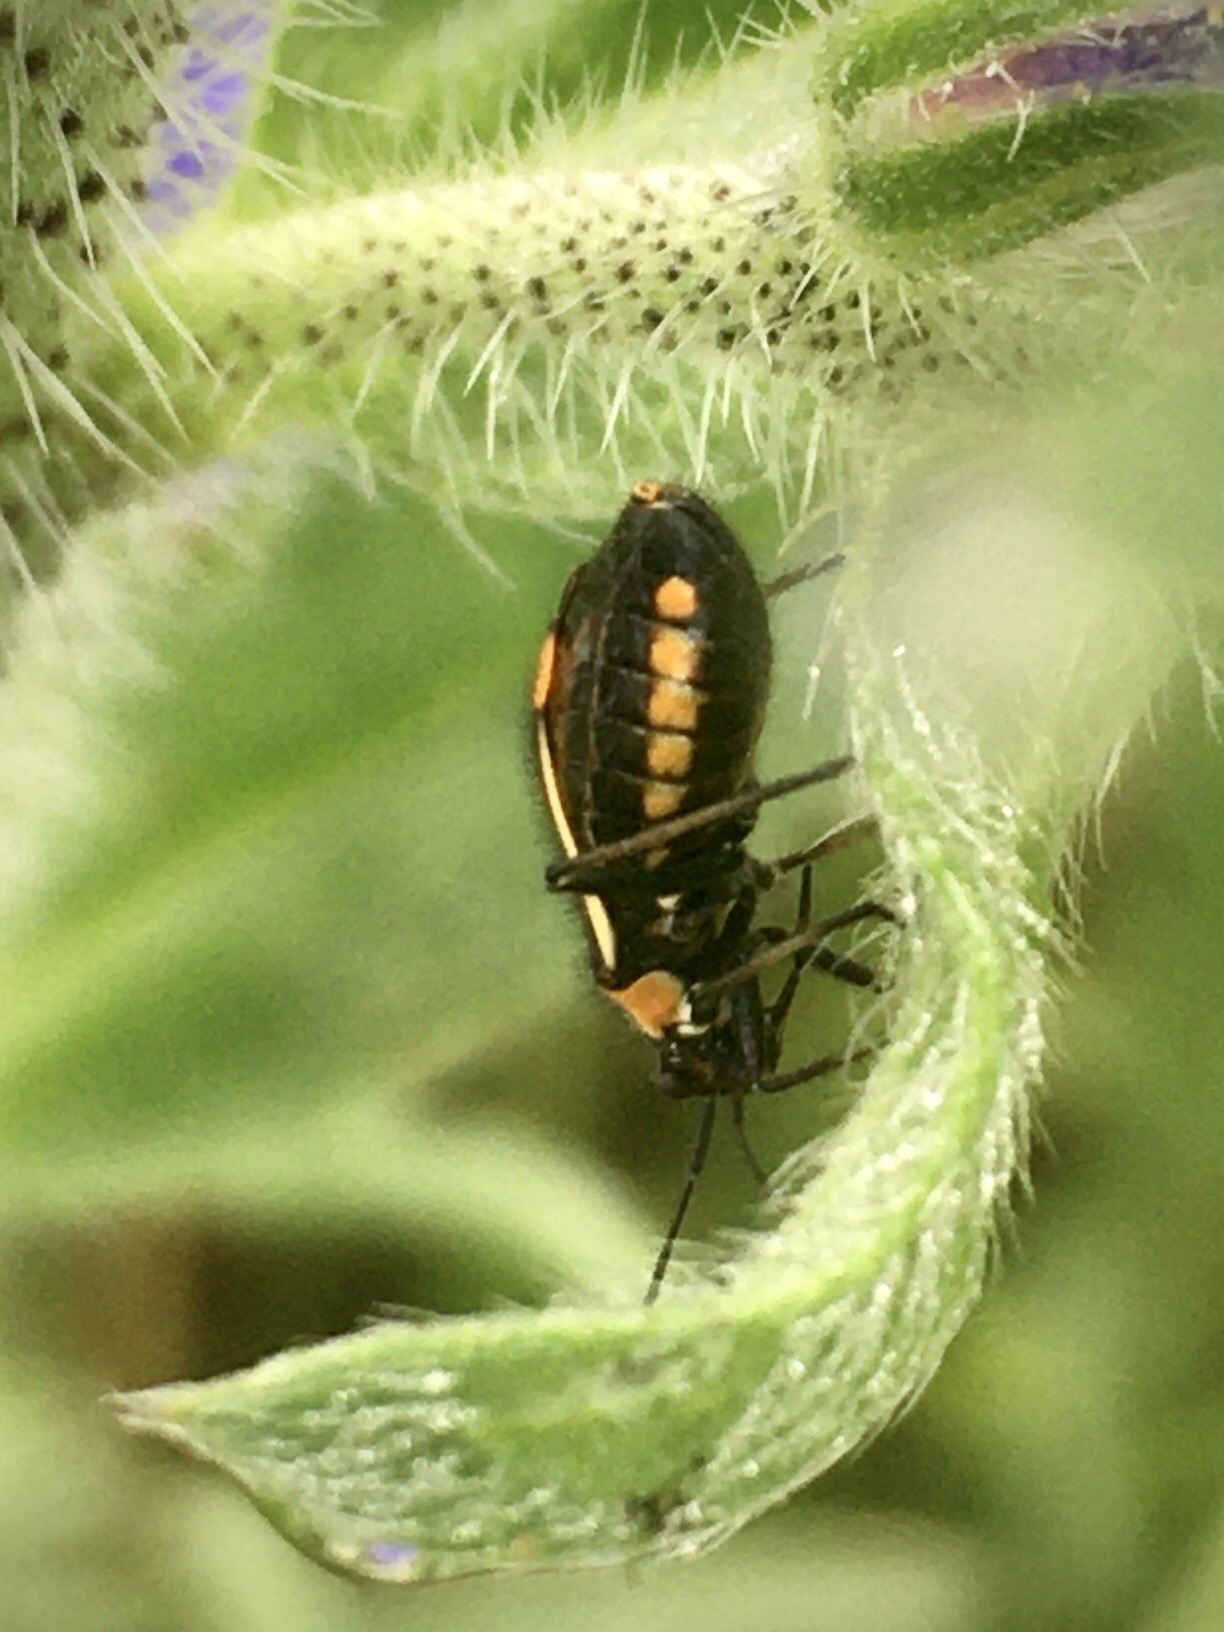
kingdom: Animalia
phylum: Arthropoda
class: Insecta
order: Hemiptera
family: Miridae
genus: Capsodes
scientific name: Capsodes
